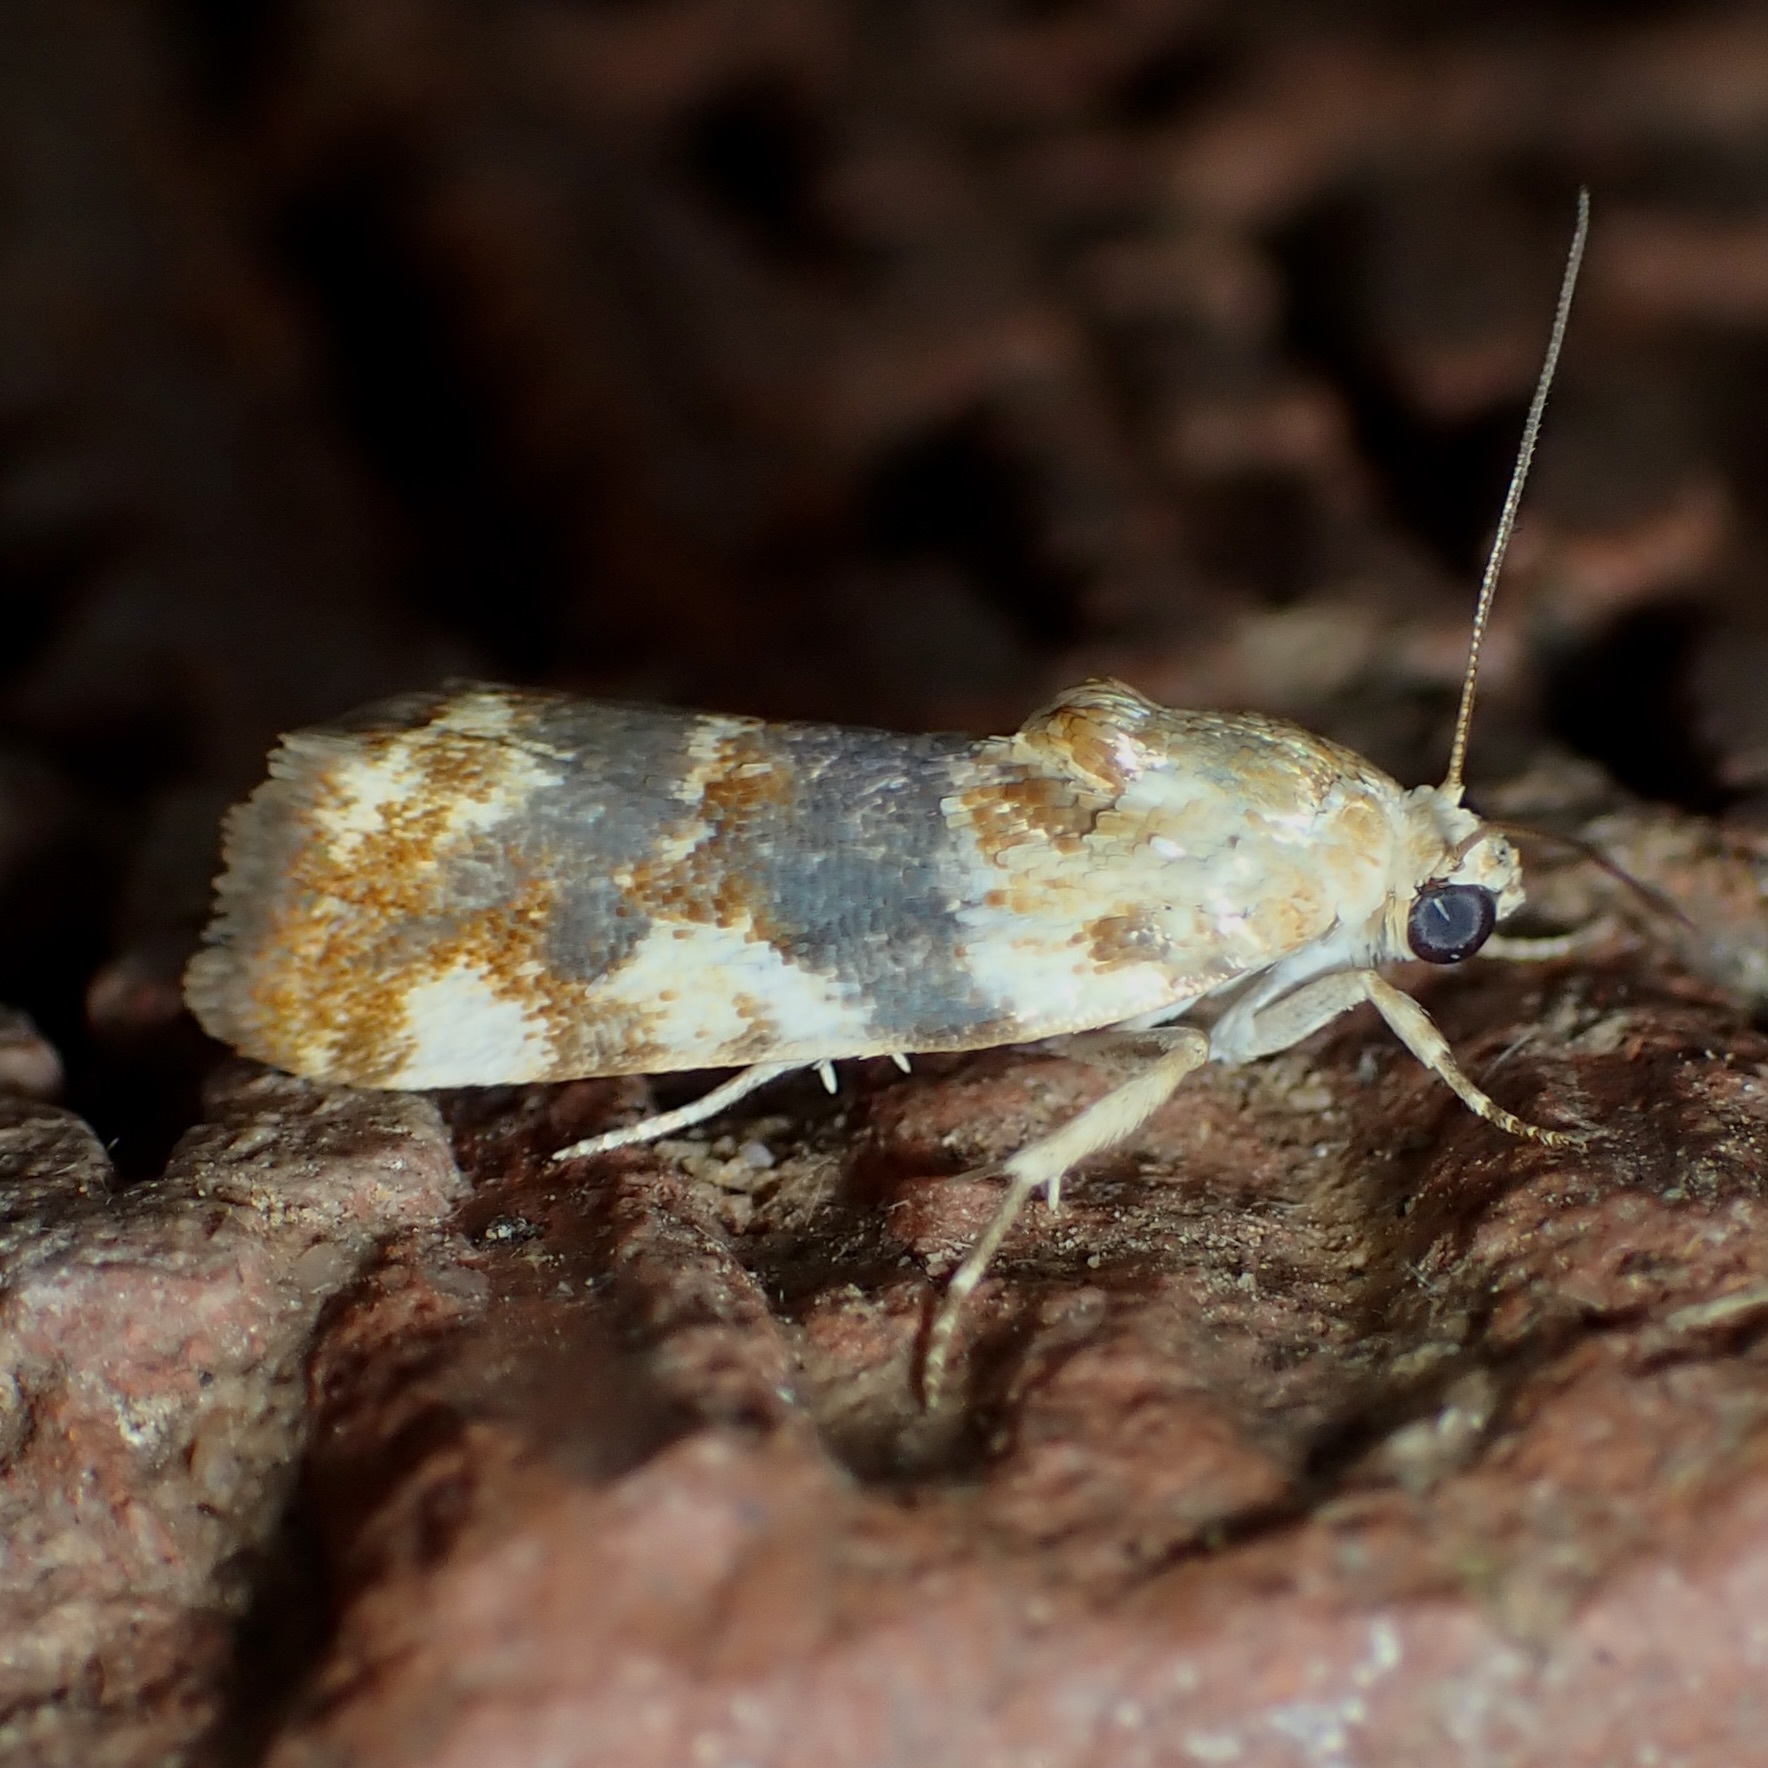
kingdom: Animalia
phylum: Arthropoda
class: Insecta
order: Lepidoptera
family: Noctuidae
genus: Acontia
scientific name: Acontia obatra
